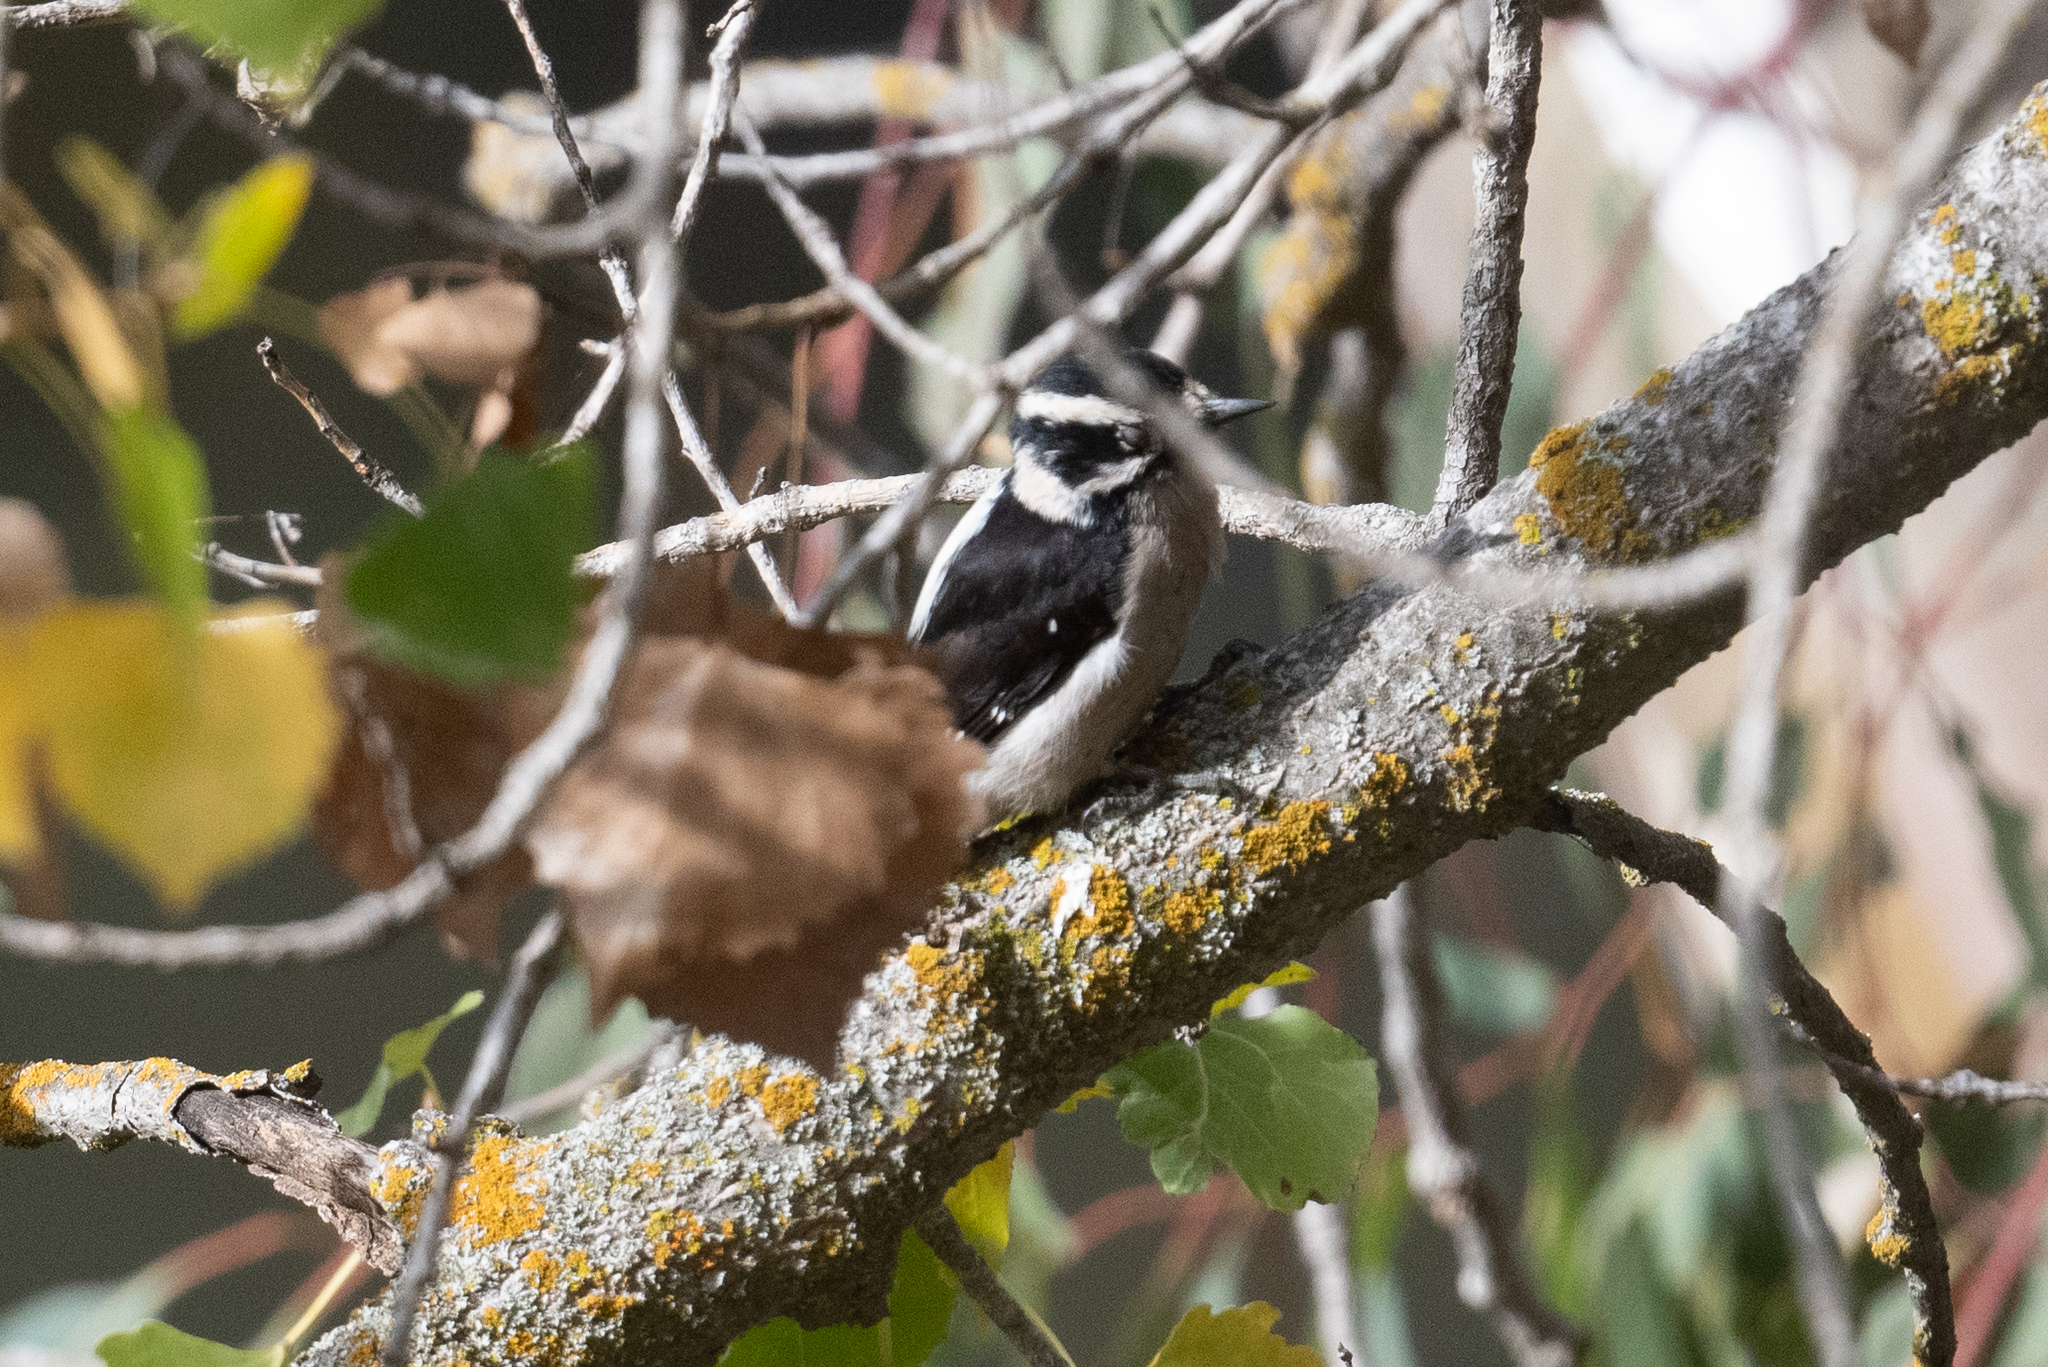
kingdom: Animalia
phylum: Chordata
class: Aves
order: Piciformes
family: Picidae
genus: Dryobates
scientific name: Dryobates pubescens
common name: Downy woodpecker
